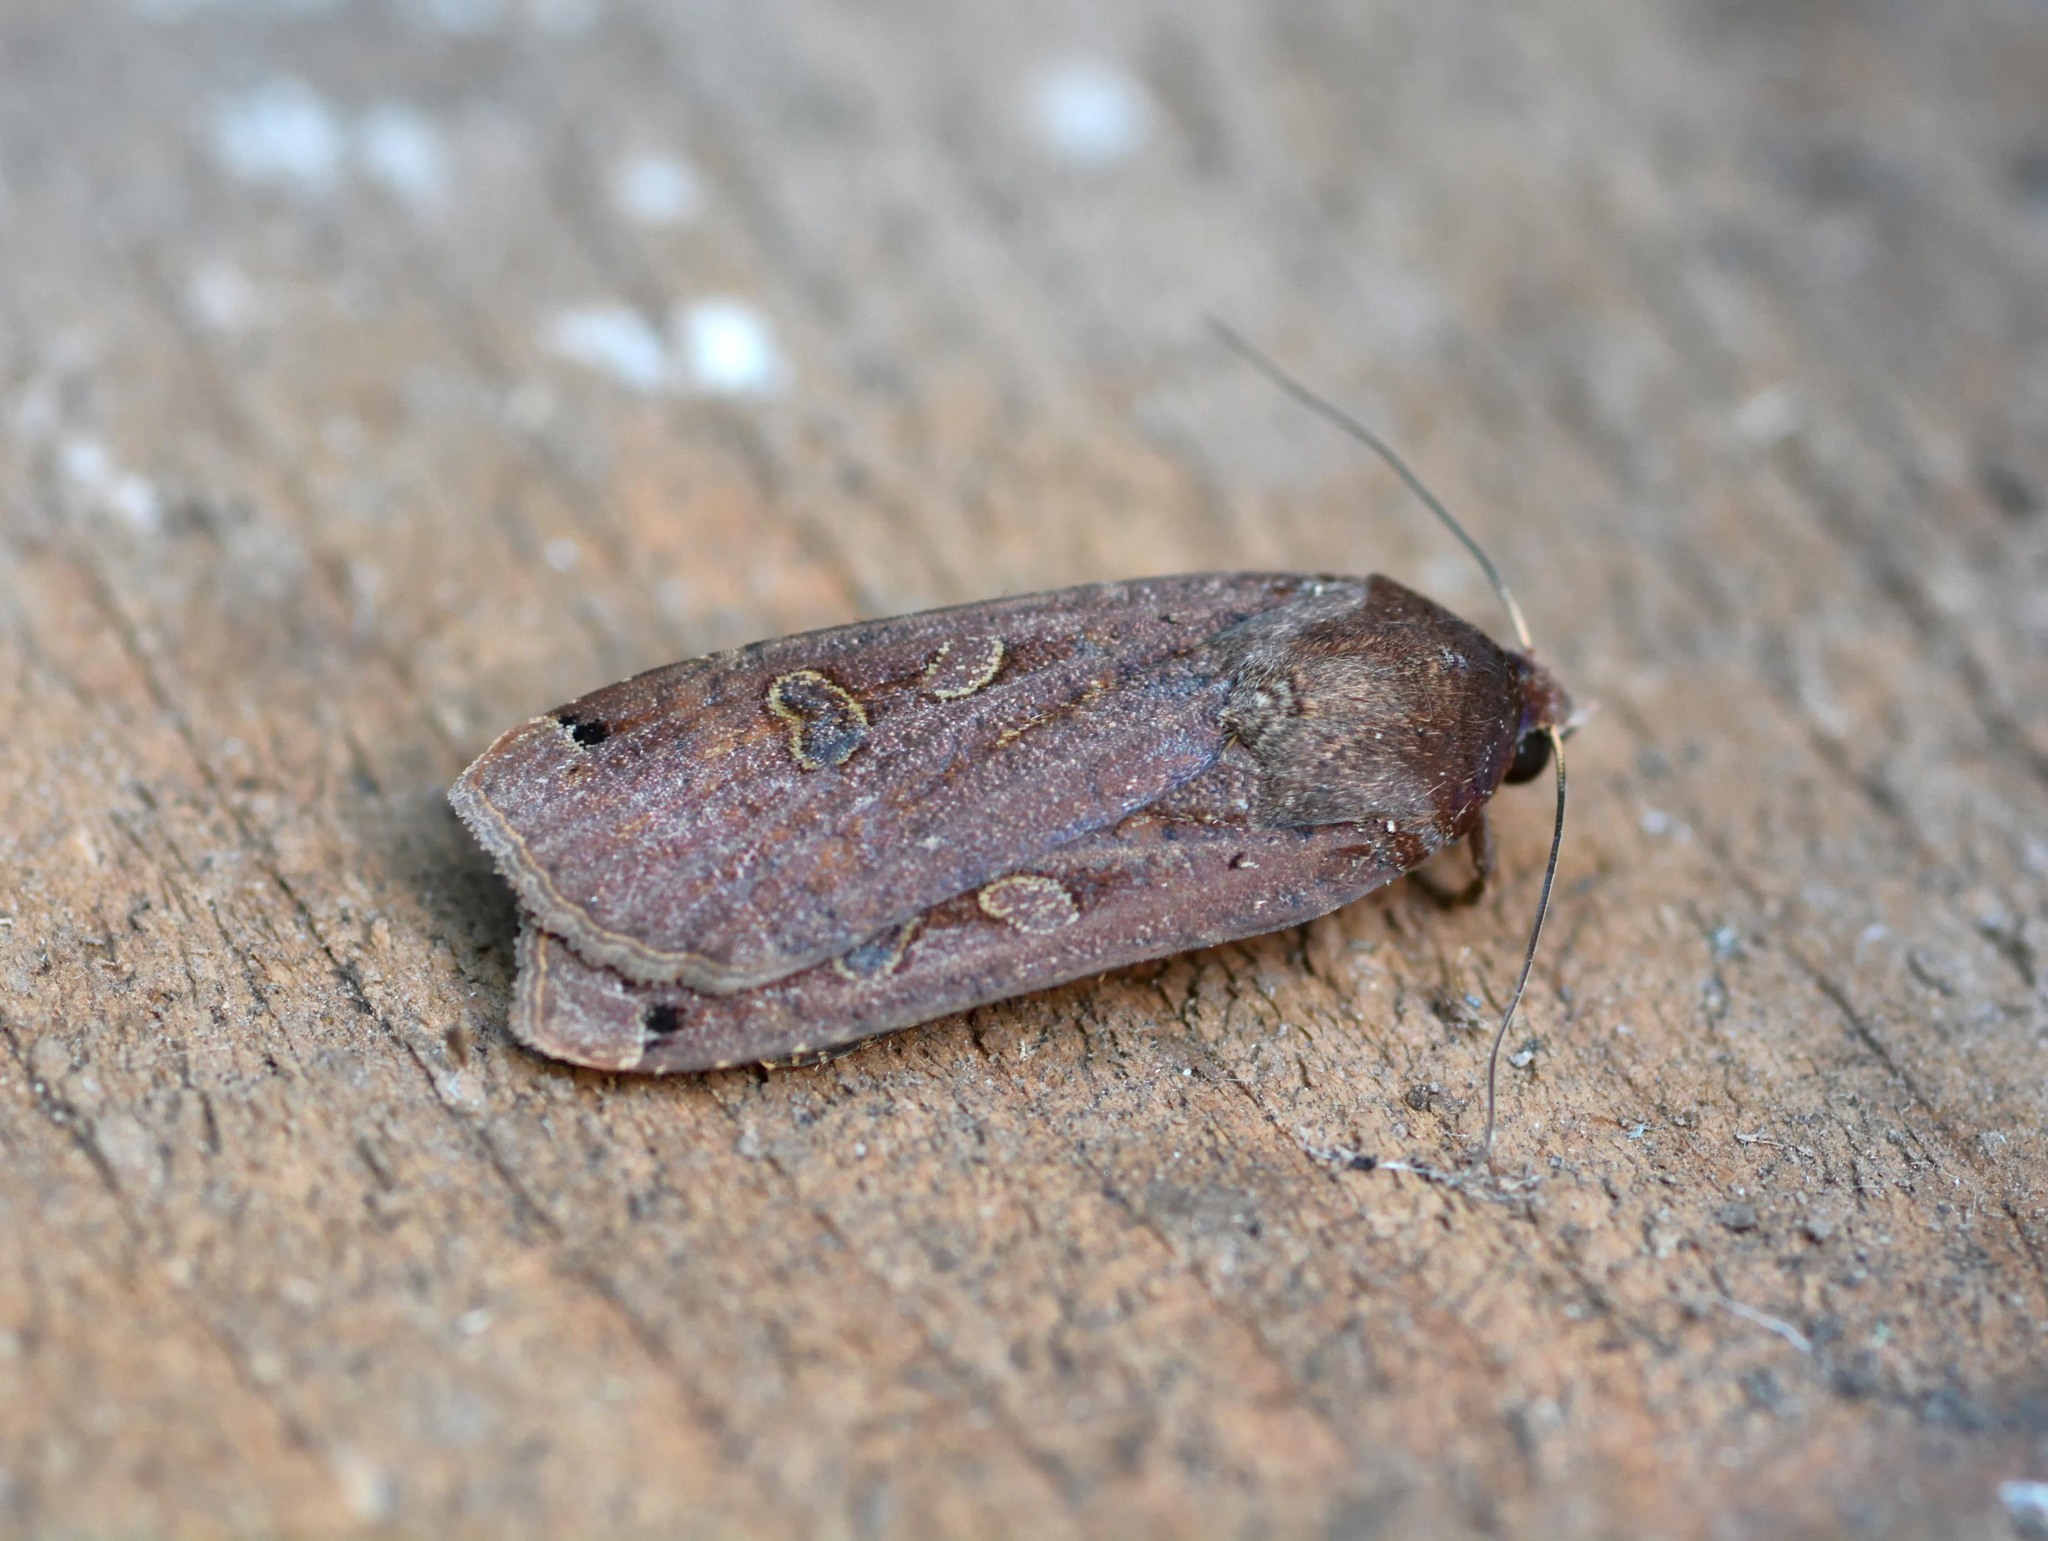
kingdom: Animalia
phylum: Arthropoda
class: Insecta
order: Lepidoptera
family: Noctuidae
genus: Noctua
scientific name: Noctua pronuba
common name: Large yellow underwing
